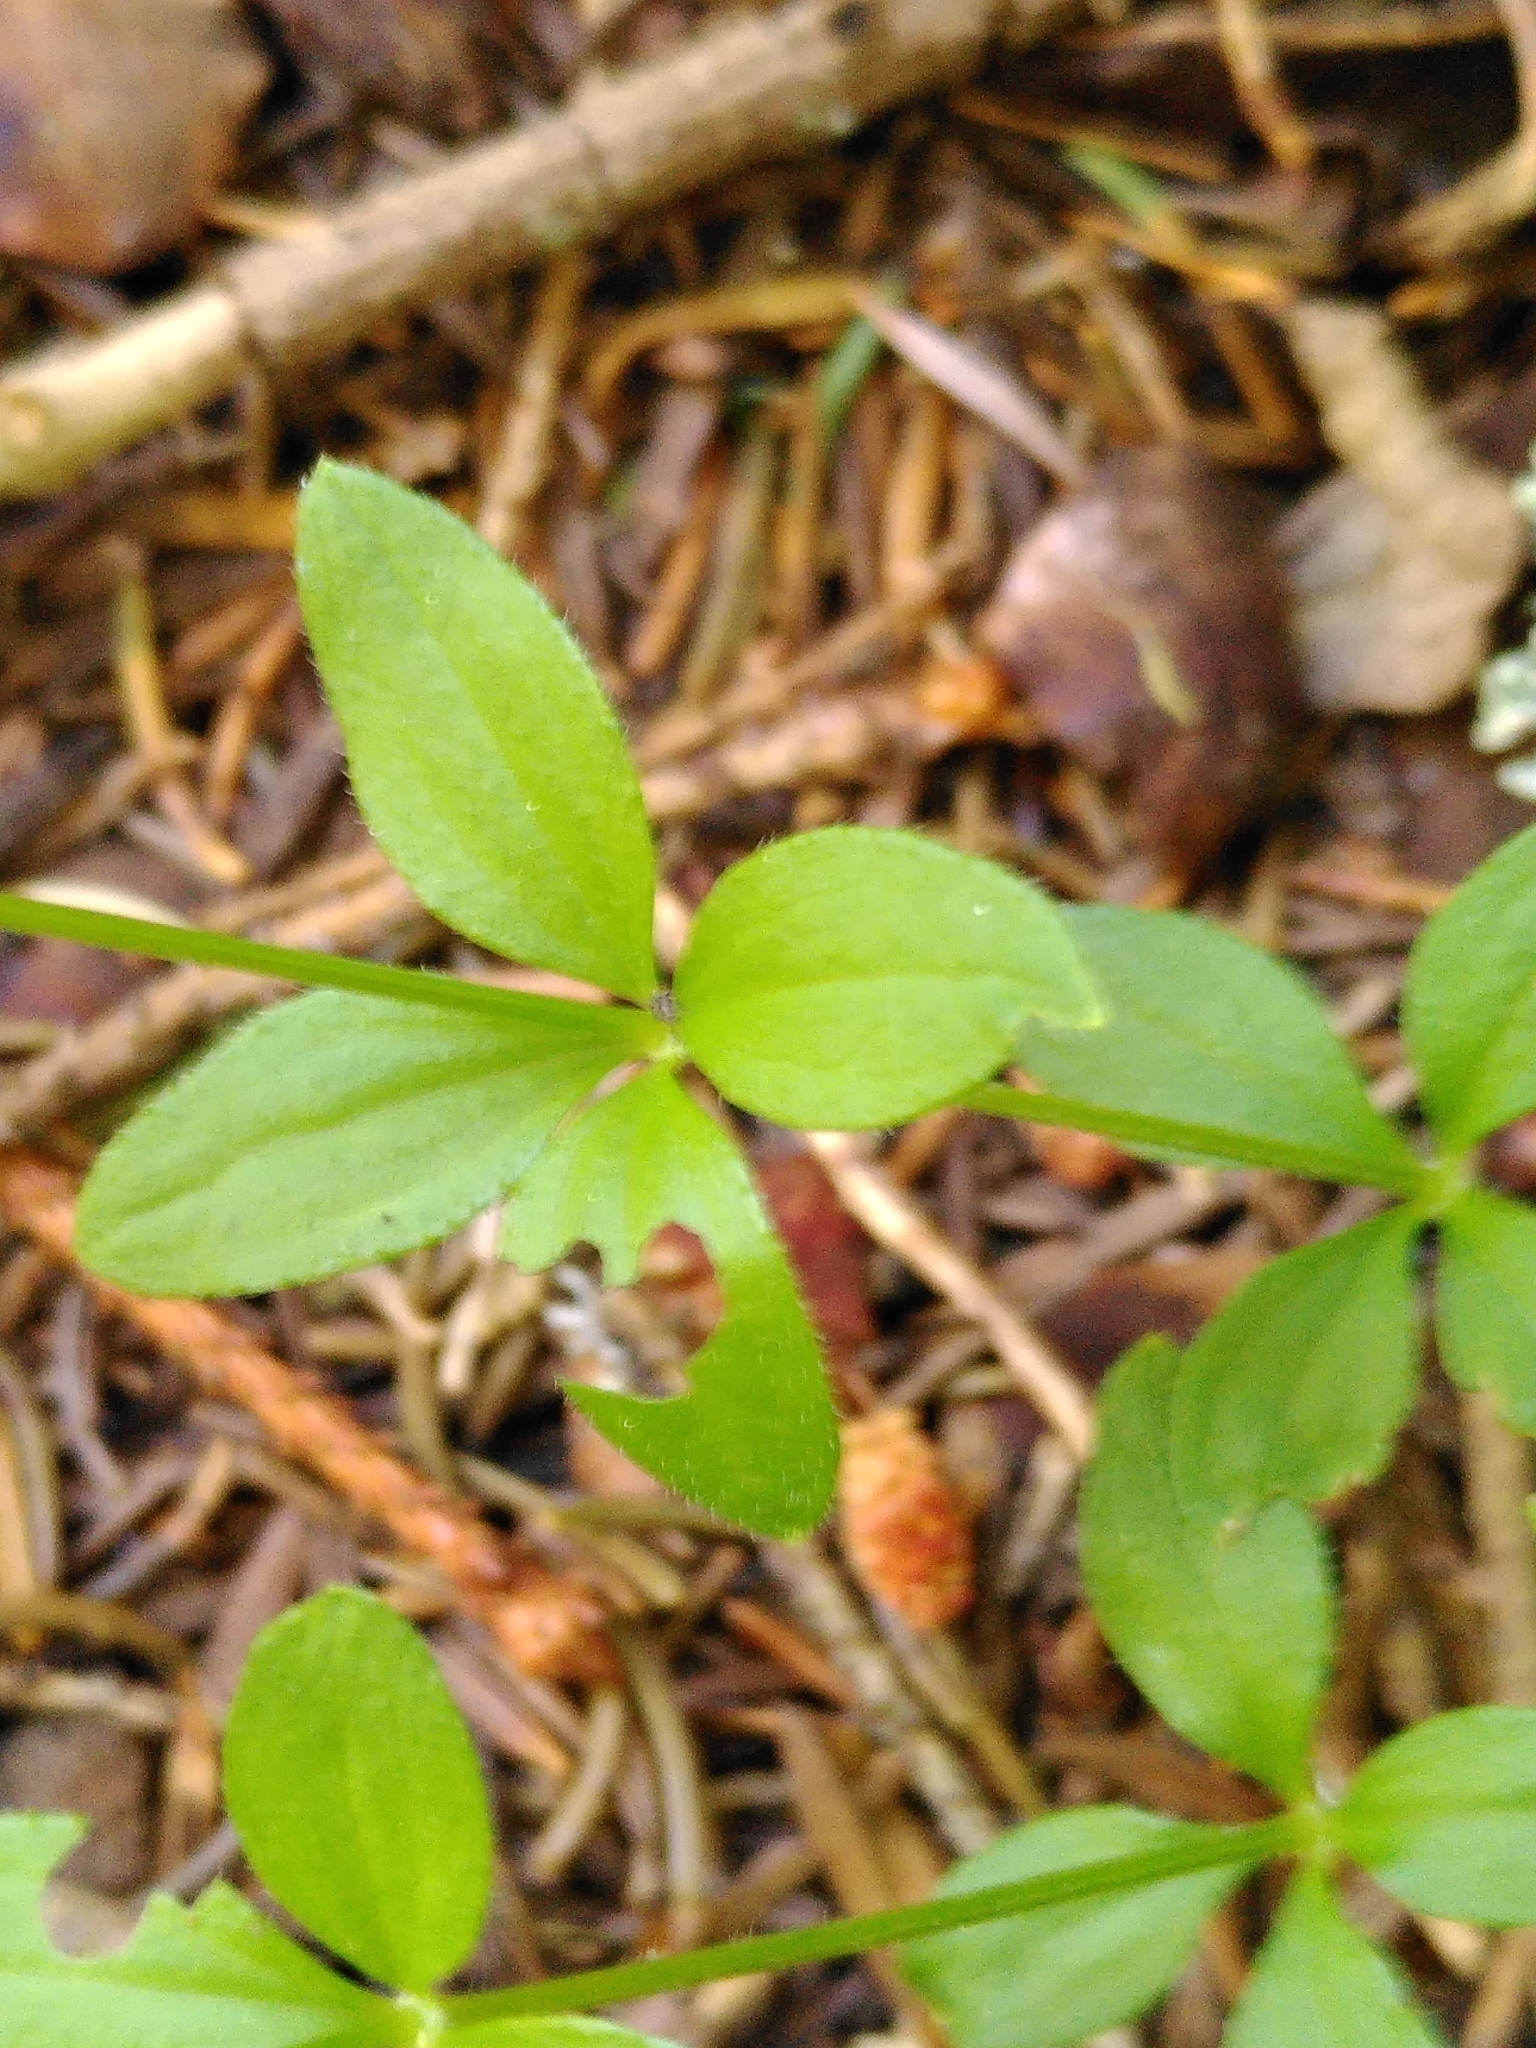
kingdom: Plantae
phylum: Tracheophyta
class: Magnoliopsida
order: Gentianales
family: Rubiaceae
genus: Galium
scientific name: Galium rotundifolium
